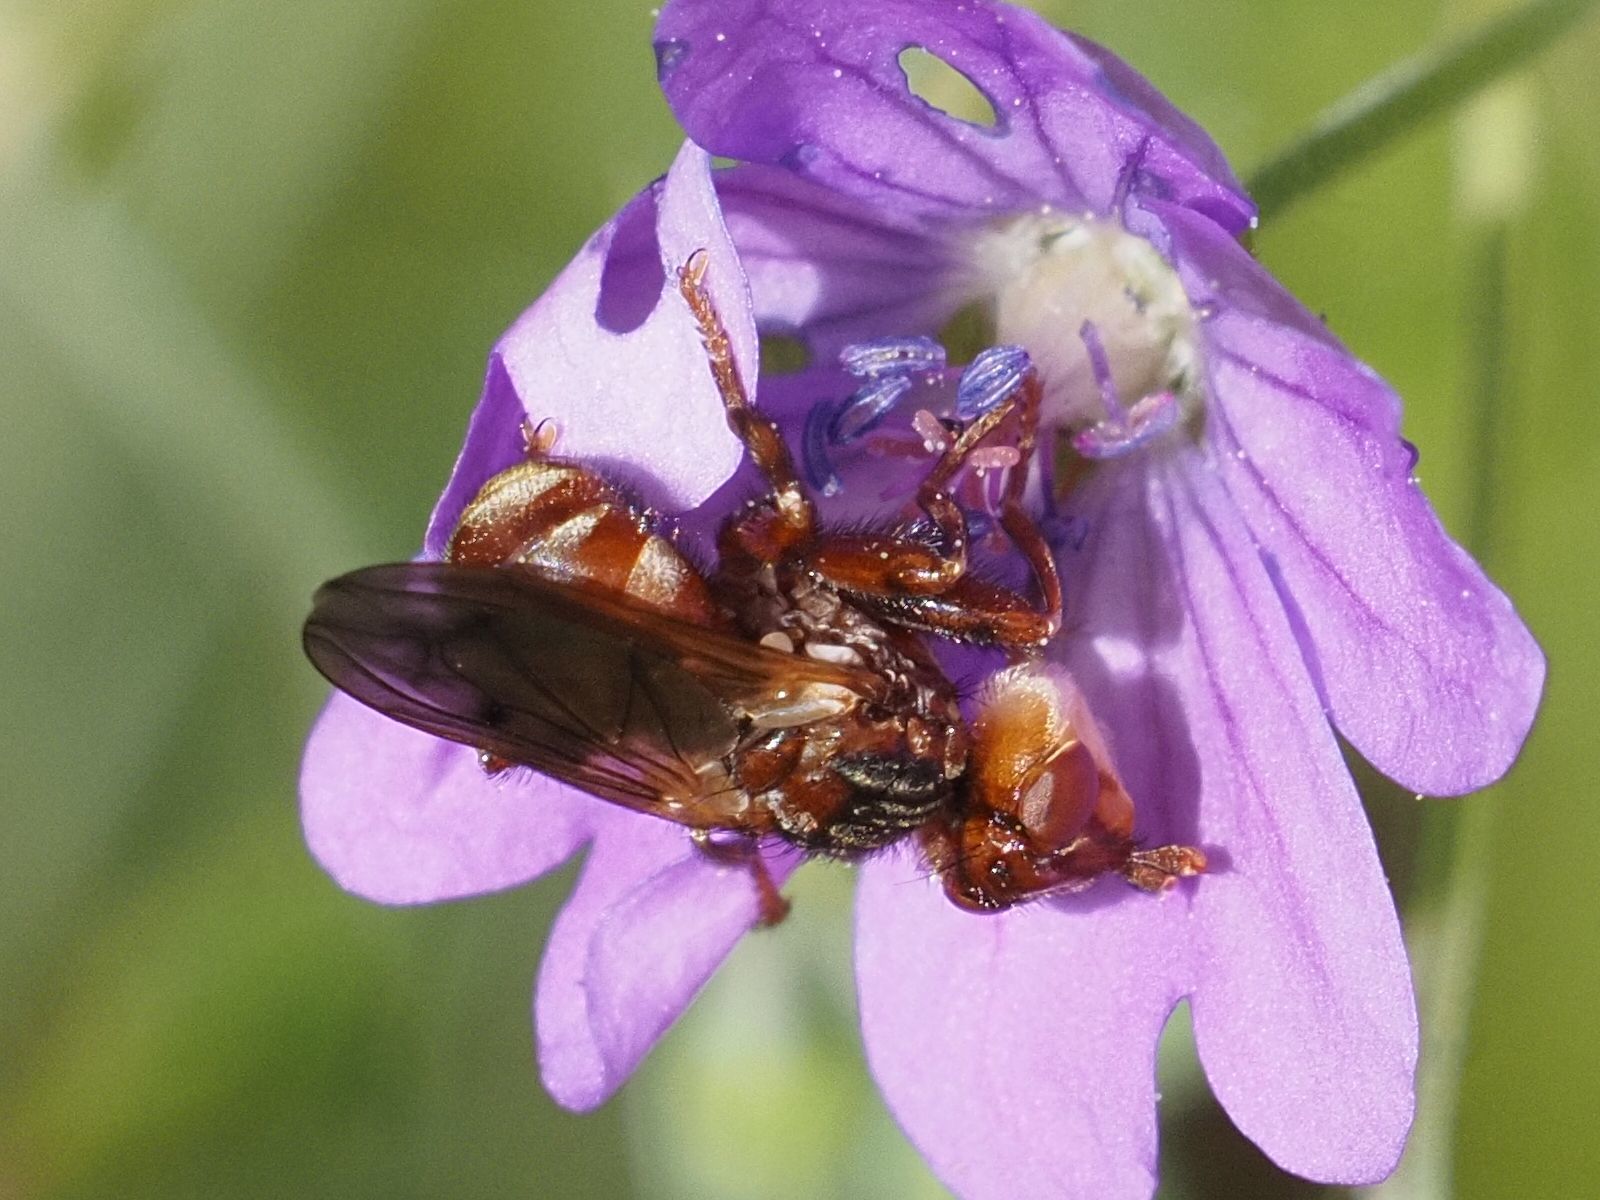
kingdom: Animalia
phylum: Arthropoda
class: Insecta
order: Diptera
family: Conopidae
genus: Myopa
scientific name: Myopa buccata
